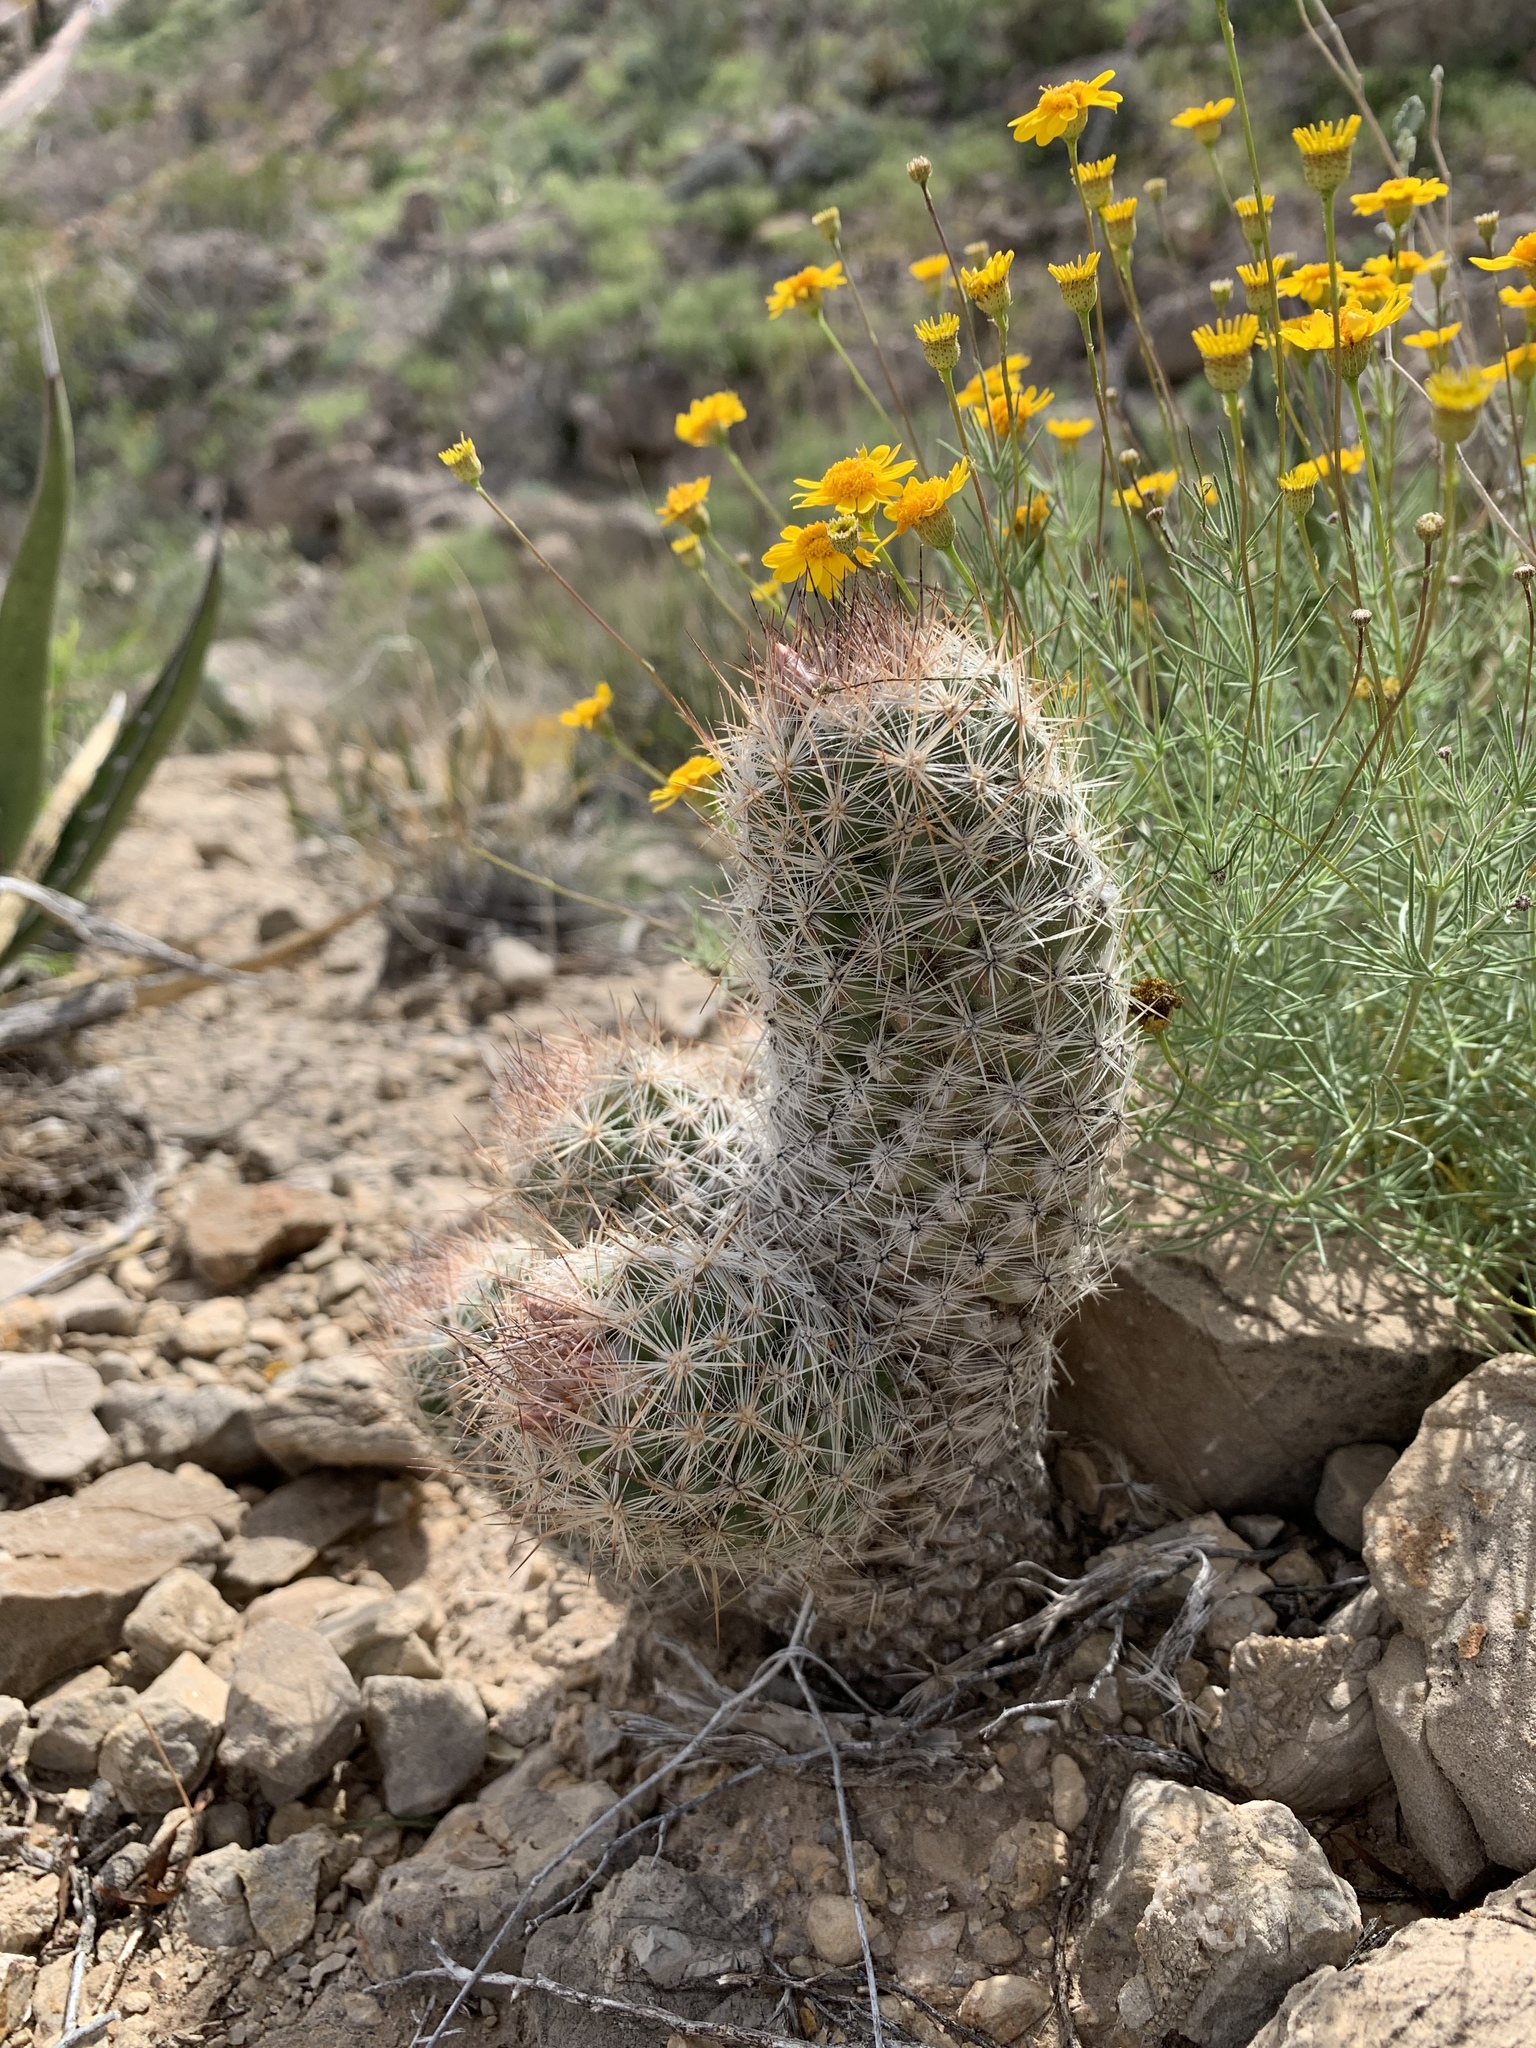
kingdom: Plantae
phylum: Tracheophyta
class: Magnoliopsida
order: Caryophyllales
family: Cactaceae
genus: Pelecyphora
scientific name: Pelecyphora tuberculosa
